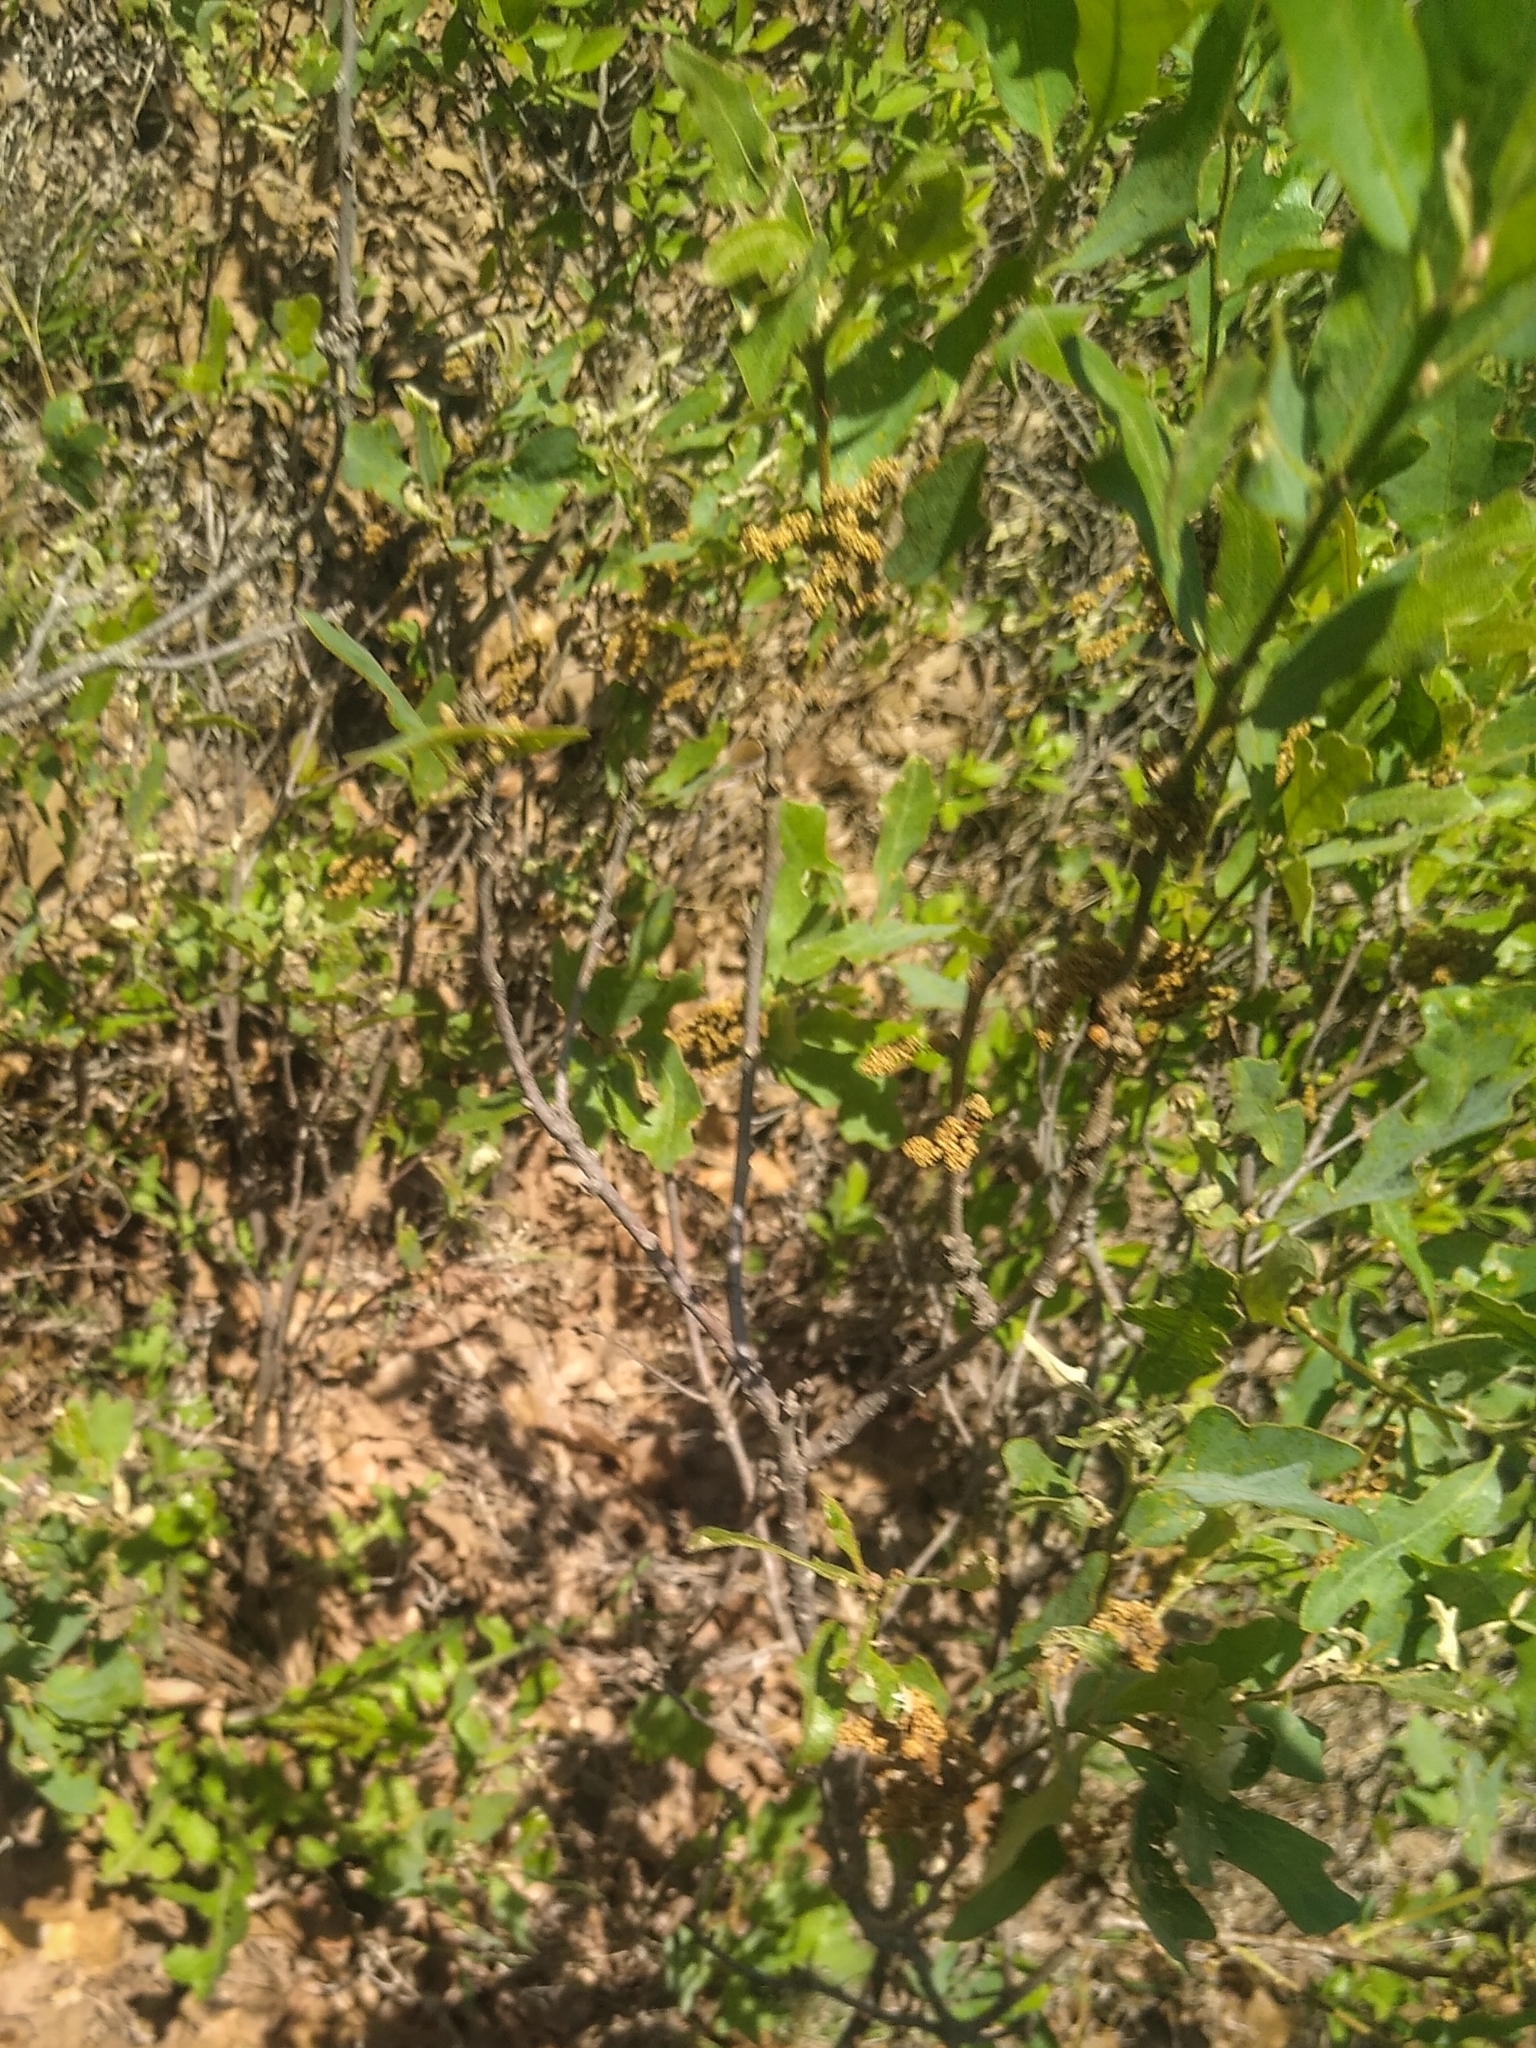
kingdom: Plantae
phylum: Tracheophyta
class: Magnoliopsida
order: Fagales
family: Fagaceae
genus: Quercus
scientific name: Quercus havardii
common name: Shinnery oak
